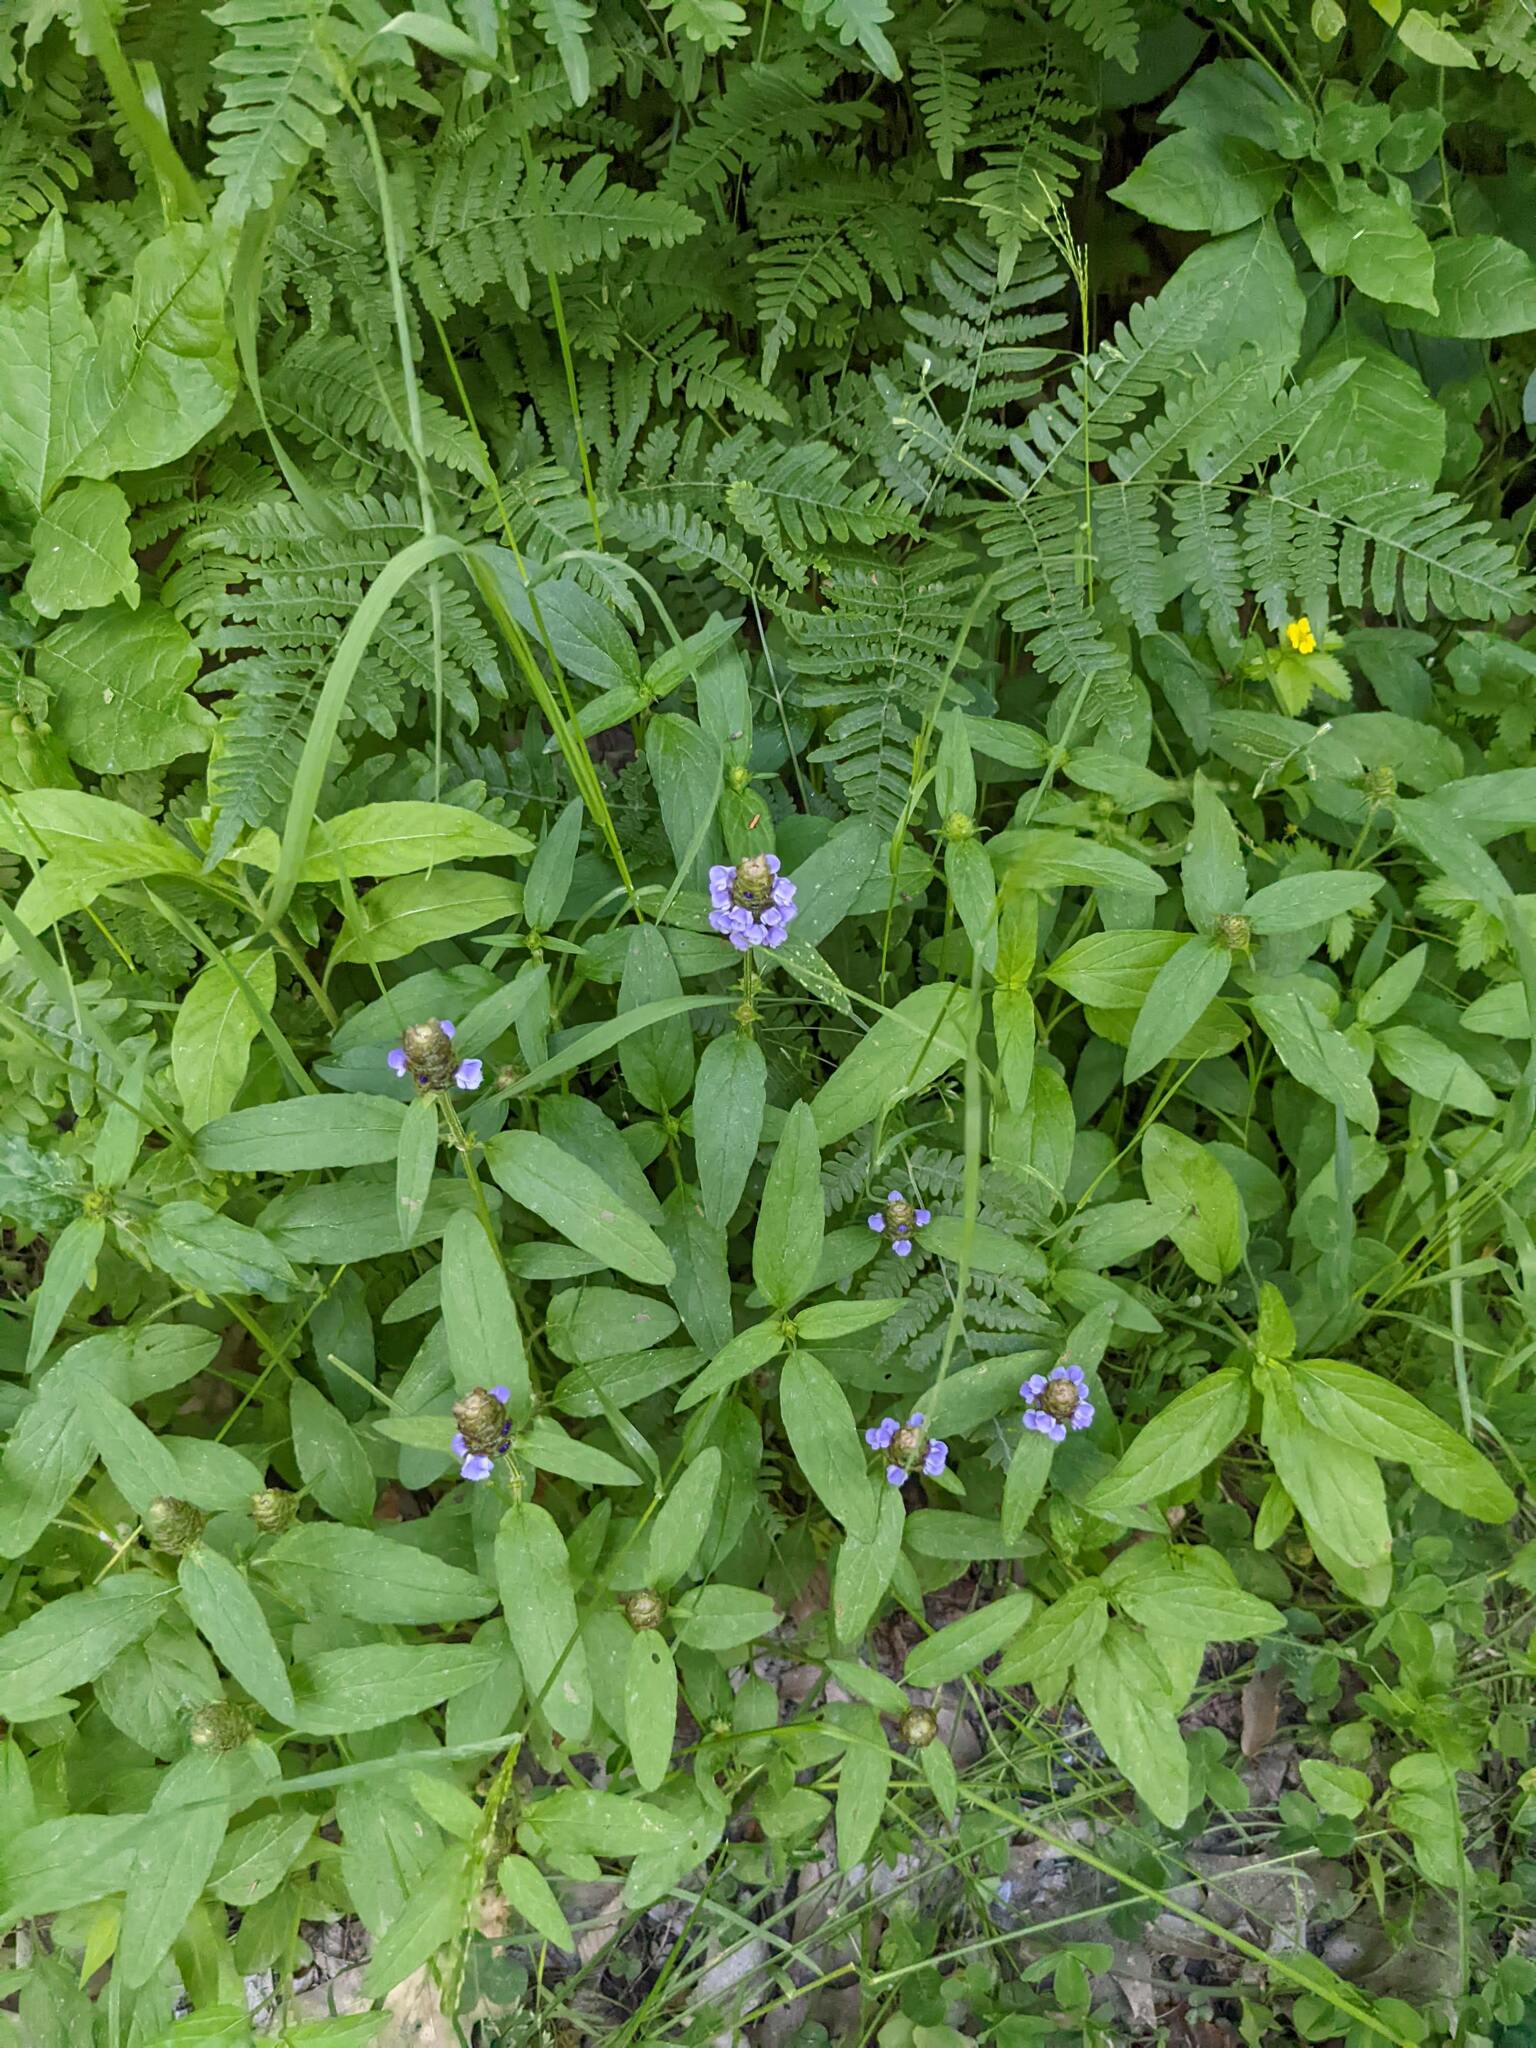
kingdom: Plantae
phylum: Tracheophyta
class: Magnoliopsida
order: Lamiales
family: Lamiaceae
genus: Prunella
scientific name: Prunella vulgaris
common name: Heal-all
